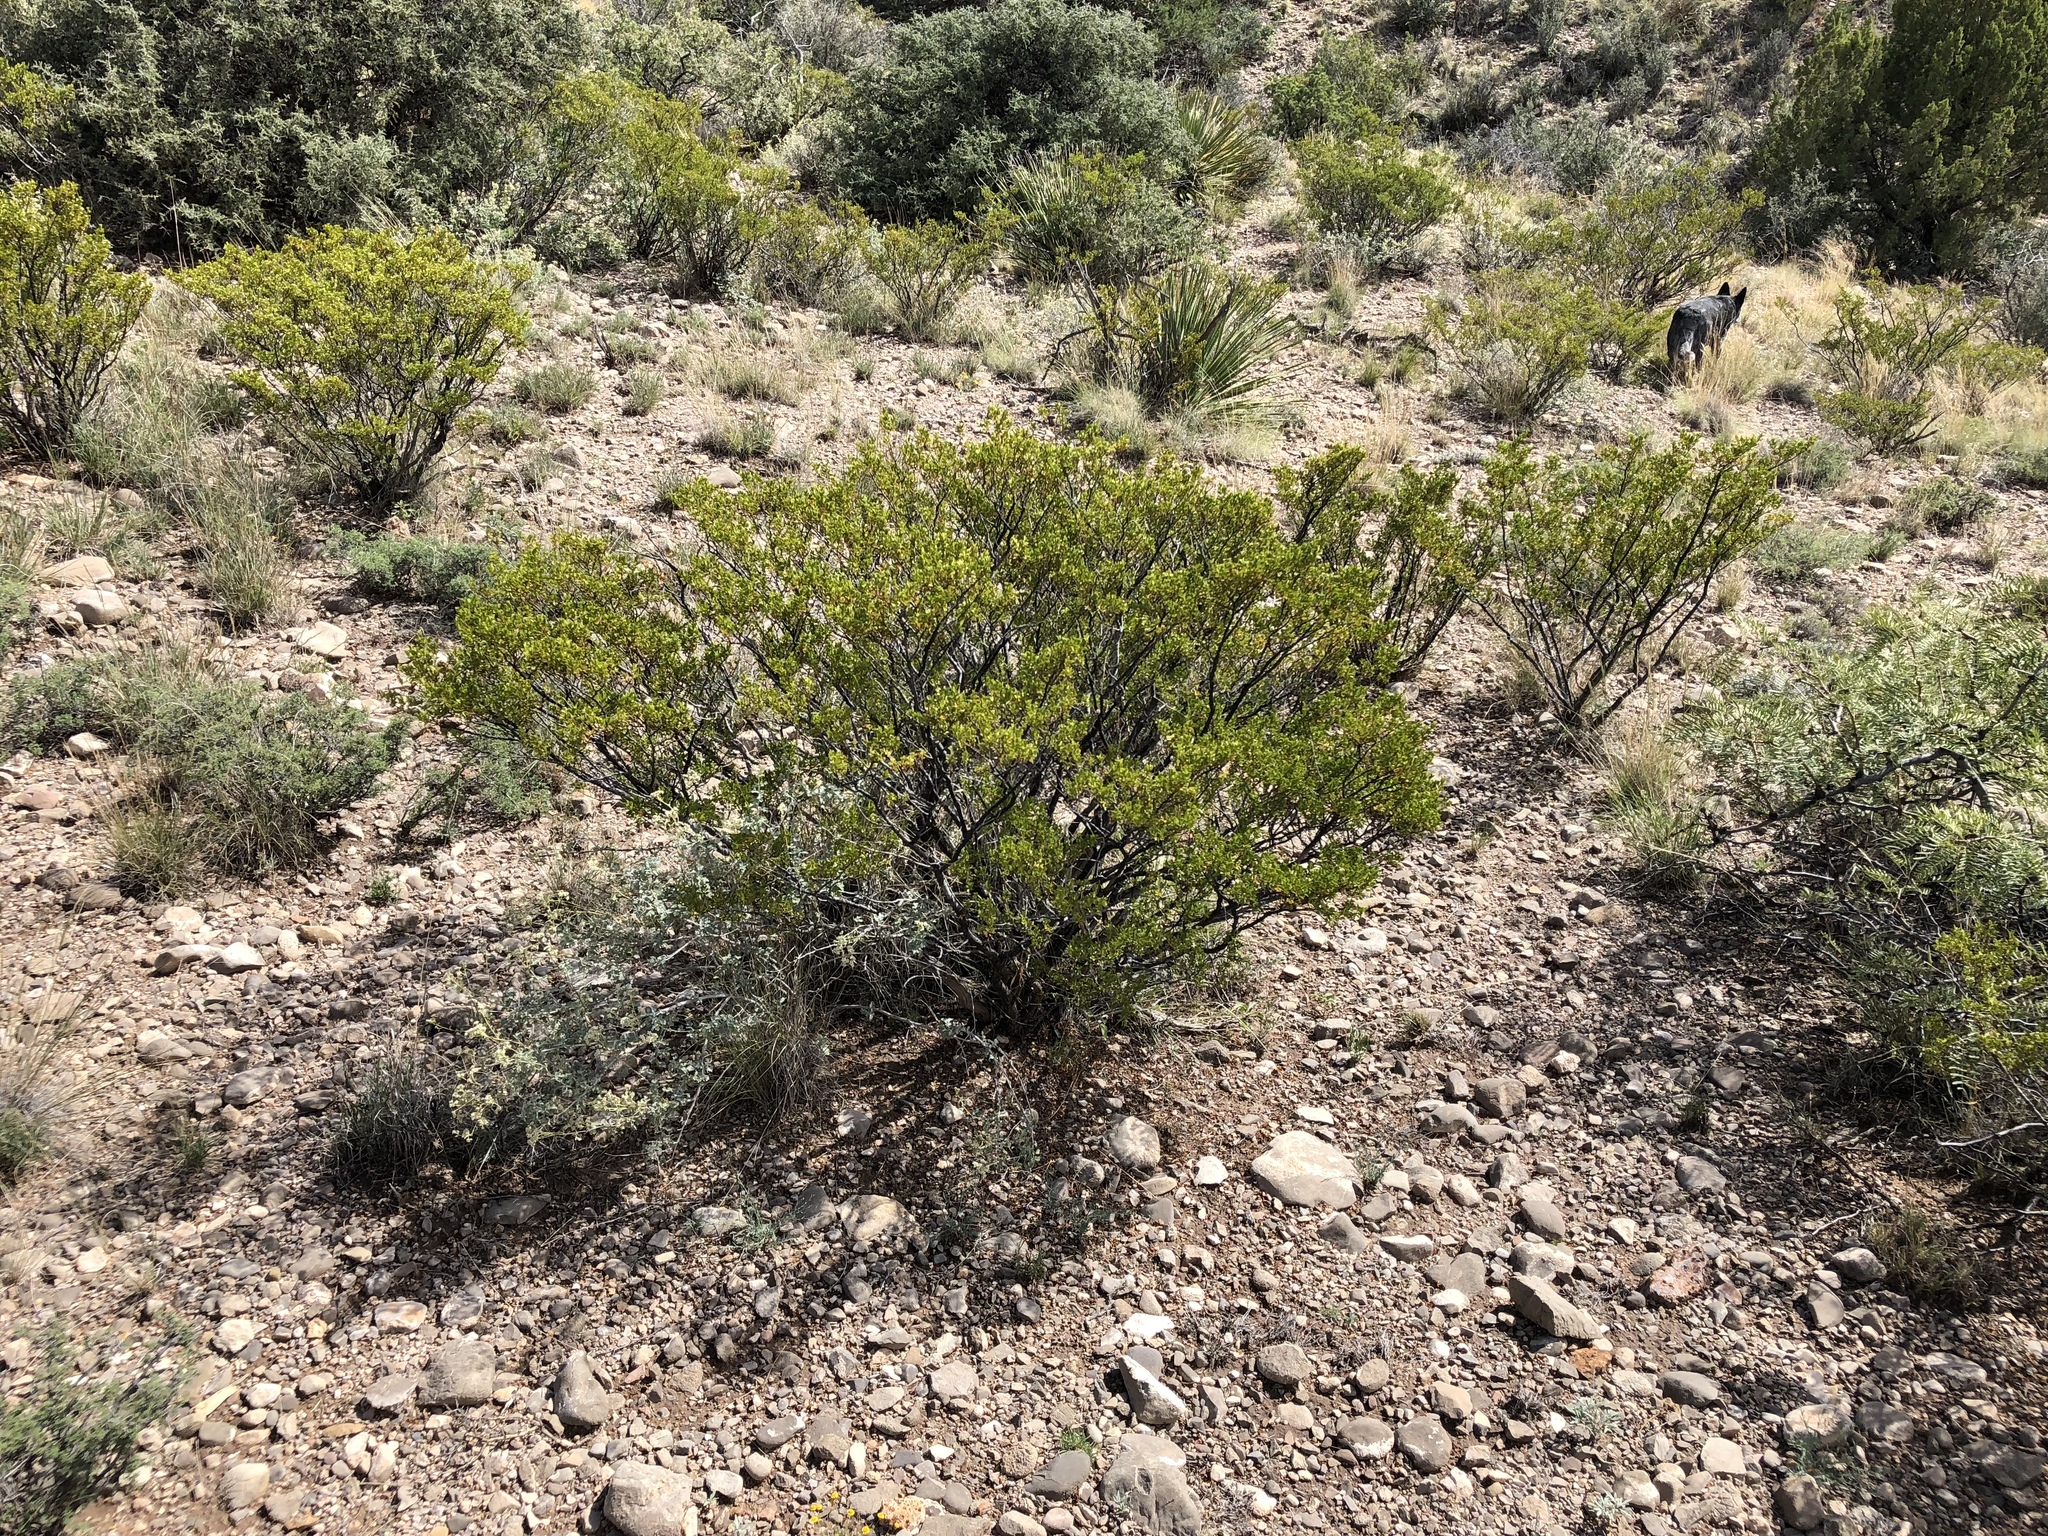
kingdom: Plantae
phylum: Tracheophyta
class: Magnoliopsida
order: Zygophyllales
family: Zygophyllaceae
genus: Larrea
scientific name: Larrea tridentata
